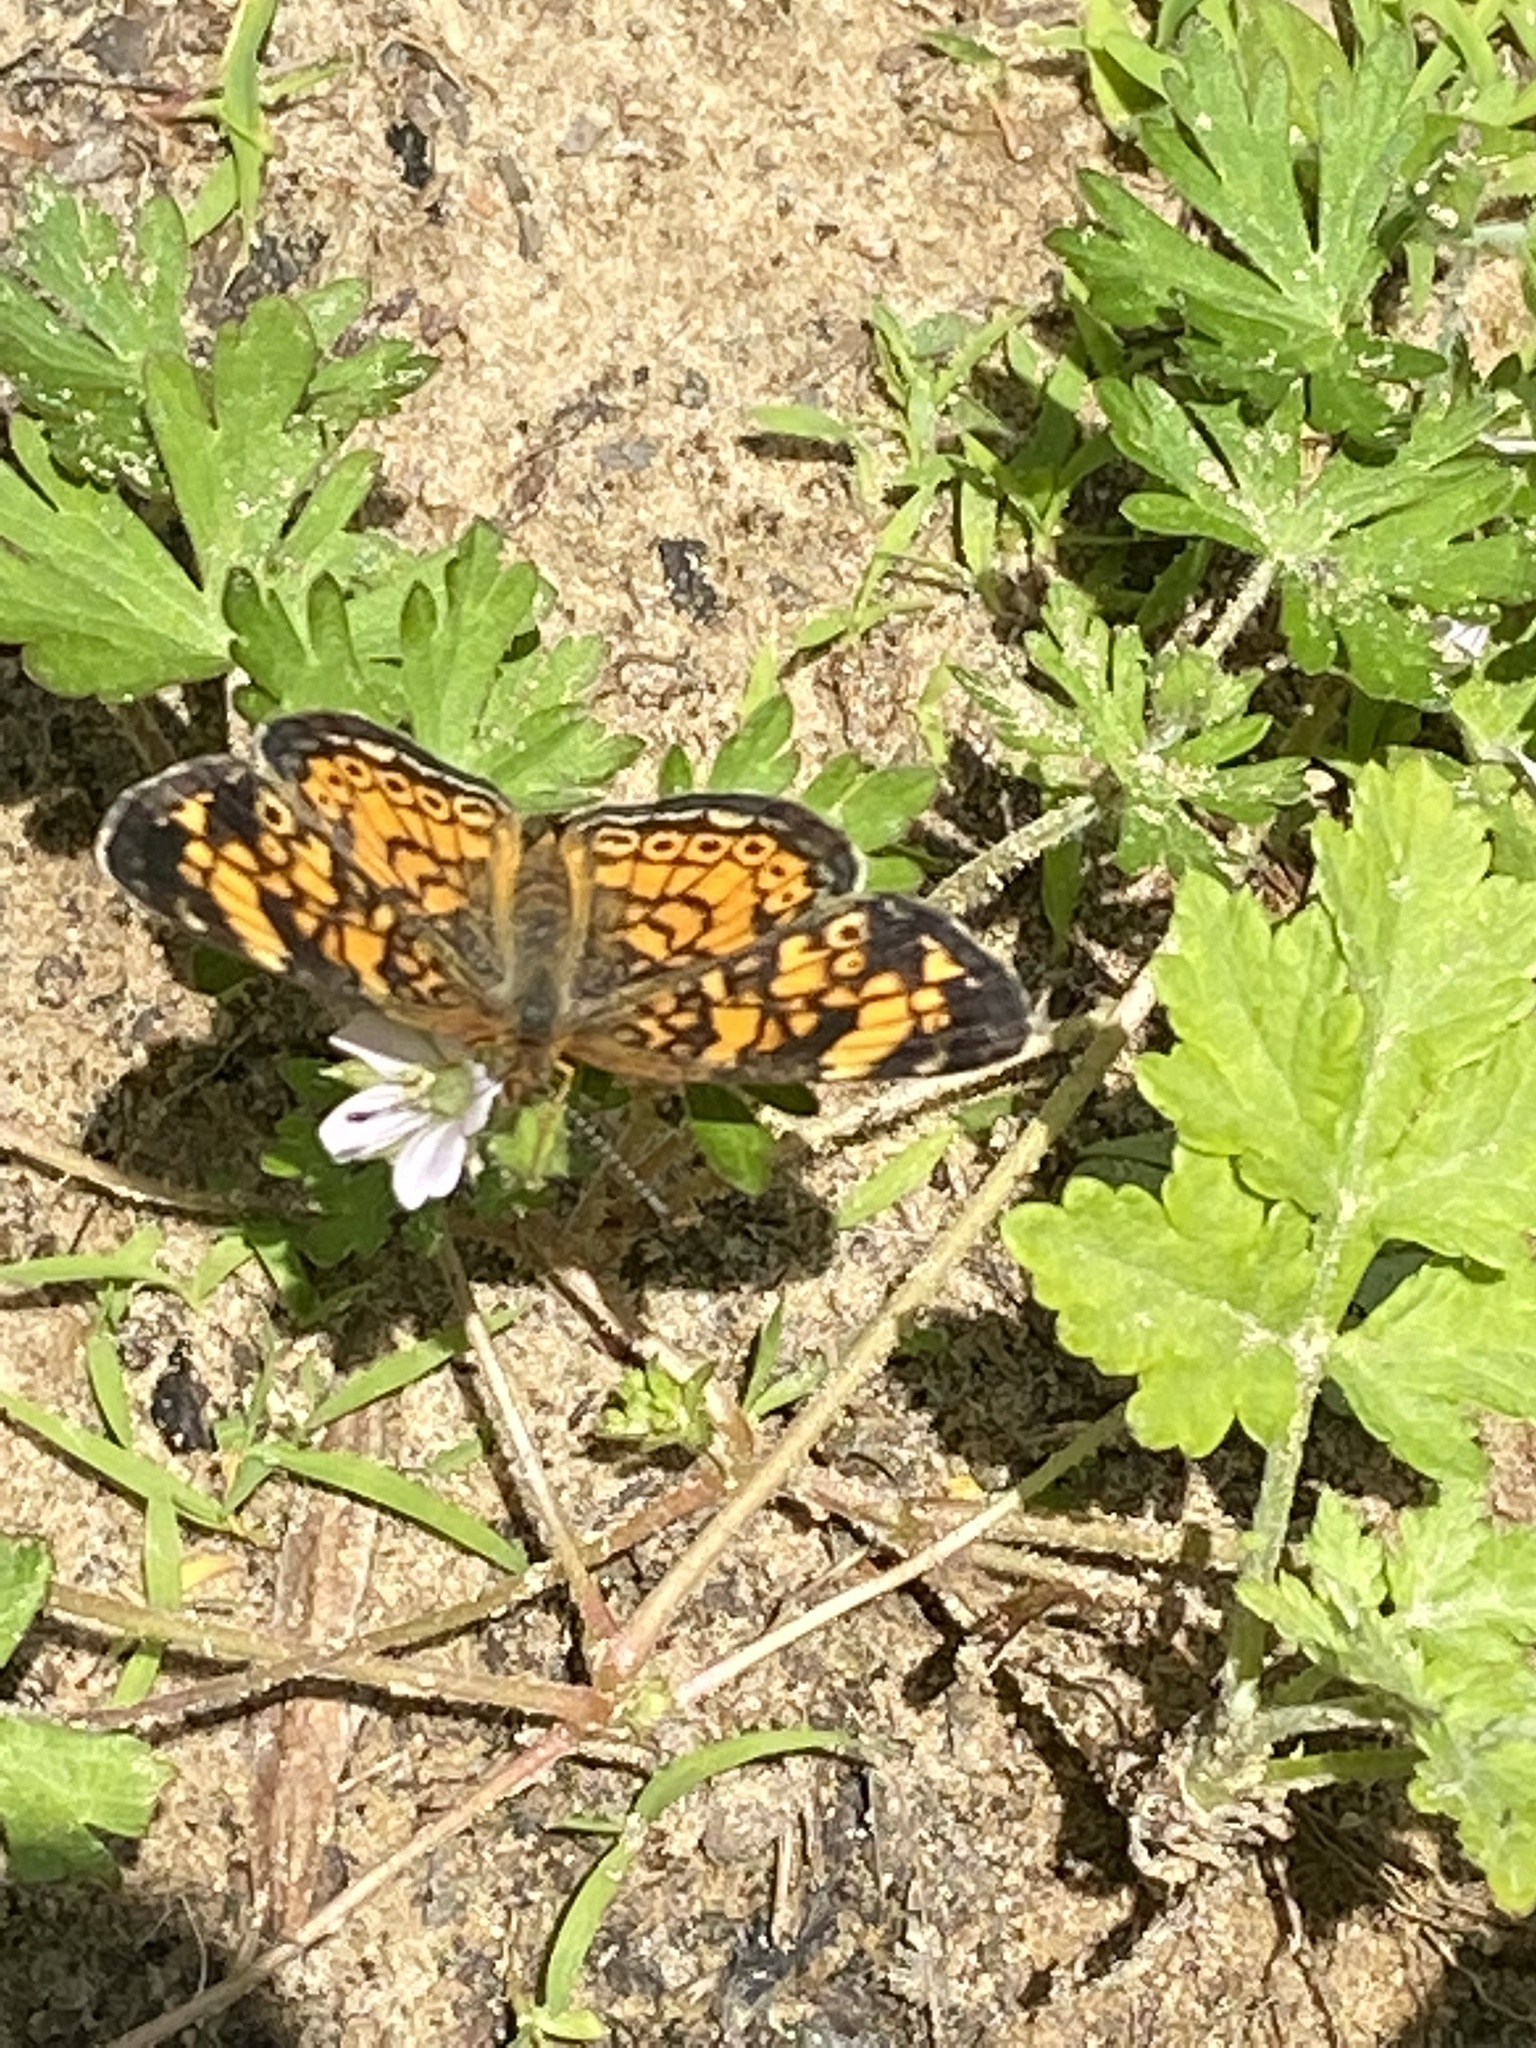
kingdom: Animalia
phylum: Arthropoda
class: Insecta
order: Lepidoptera
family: Nymphalidae
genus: Phyciodes
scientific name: Phyciodes tharos
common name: Pearl crescent
